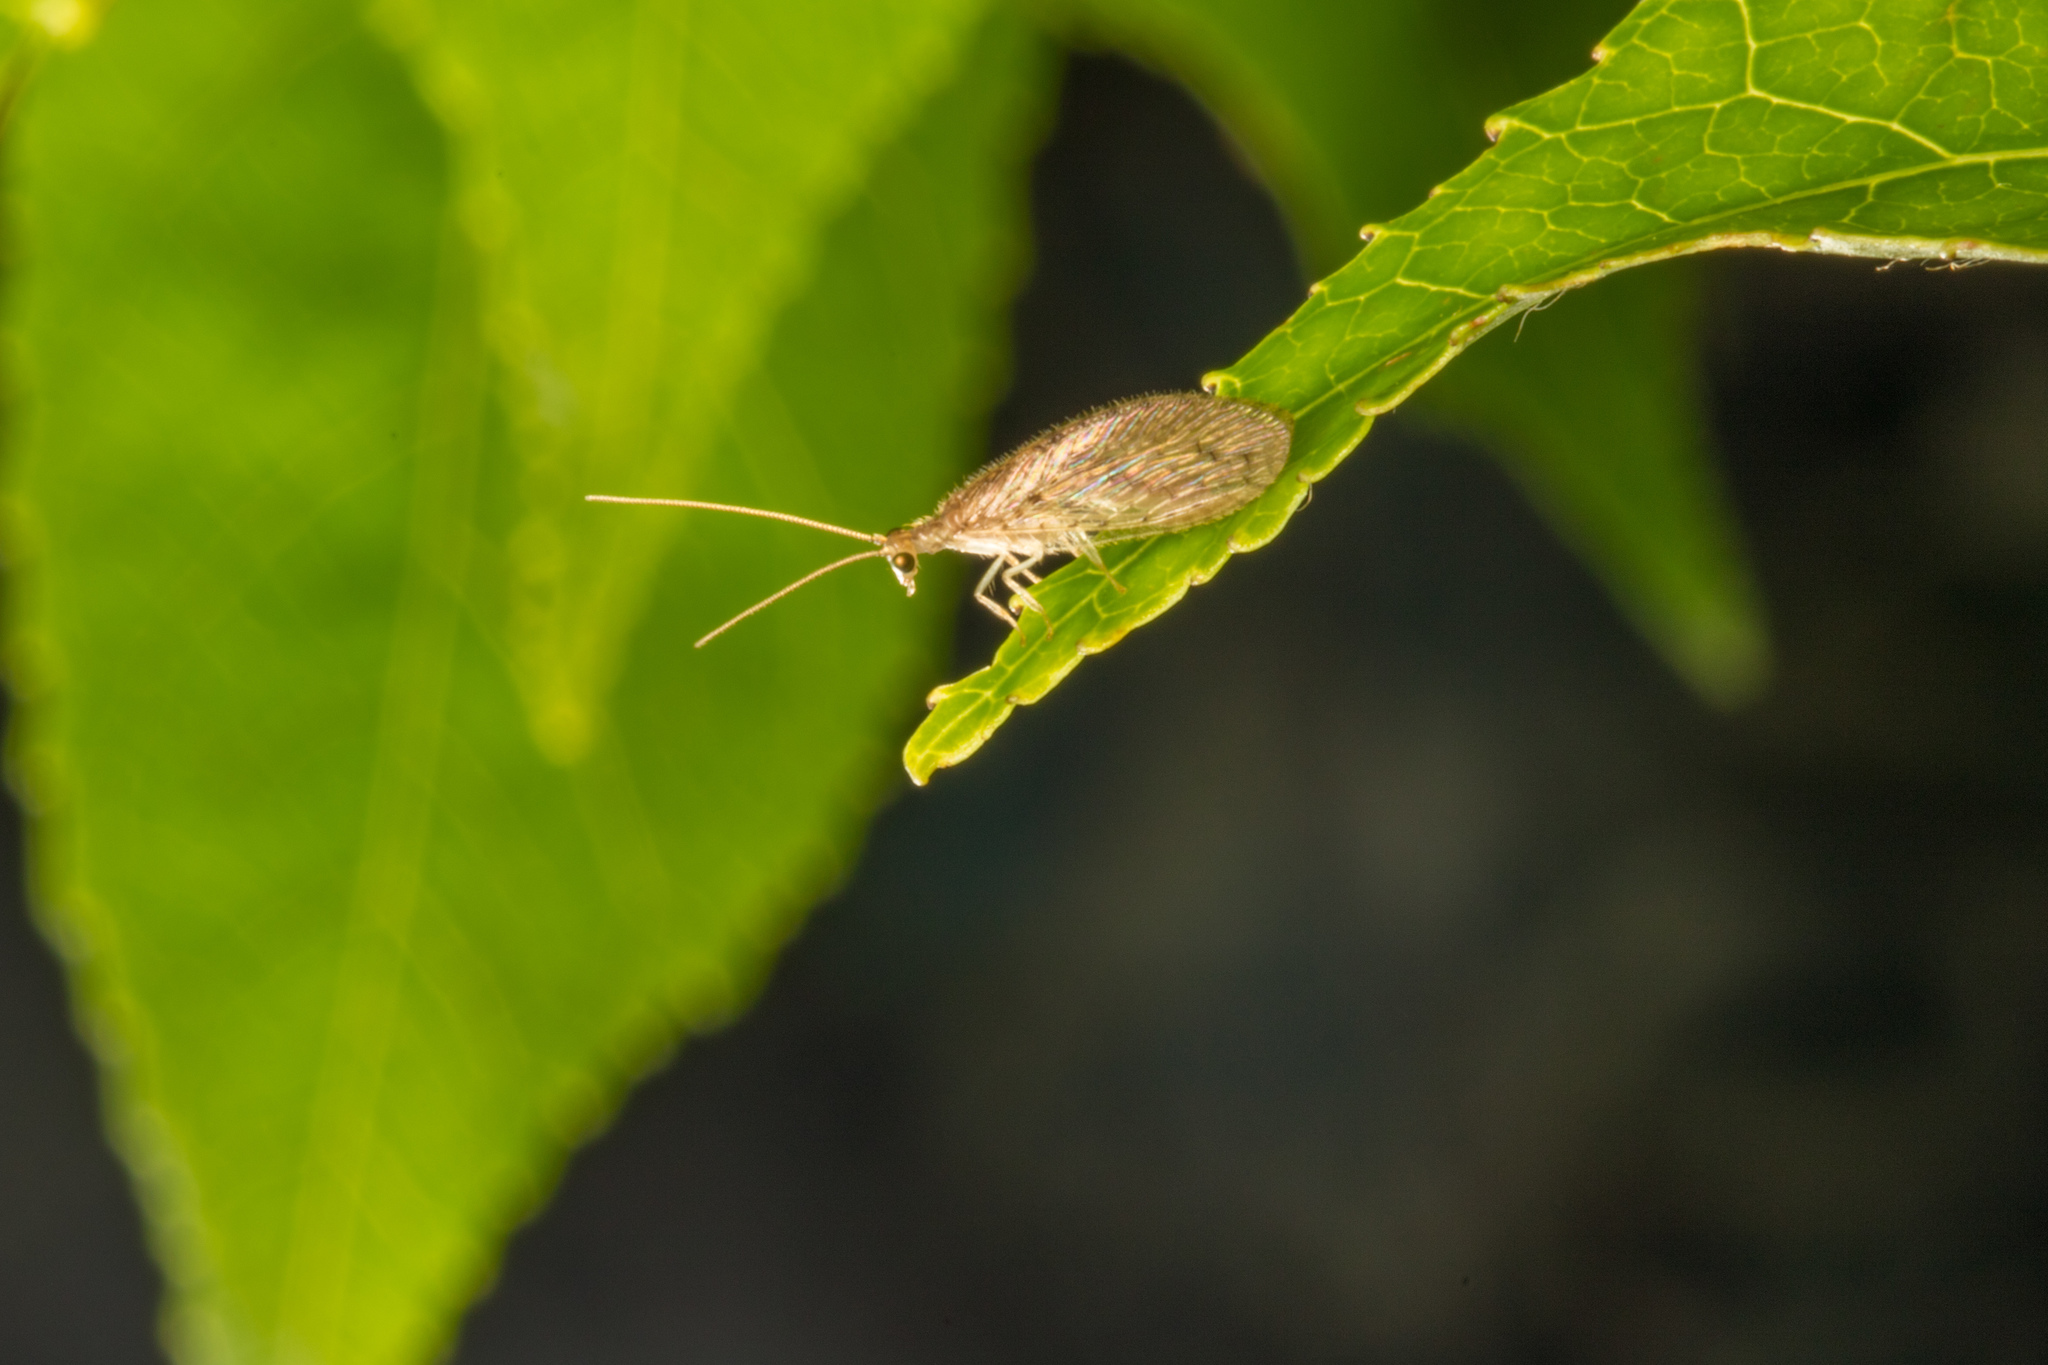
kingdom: Animalia
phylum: Arthropoda
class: Insecta
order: Neuroptera
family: Hemerobiidae
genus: Micromus
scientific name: Micromus tasmaniae
